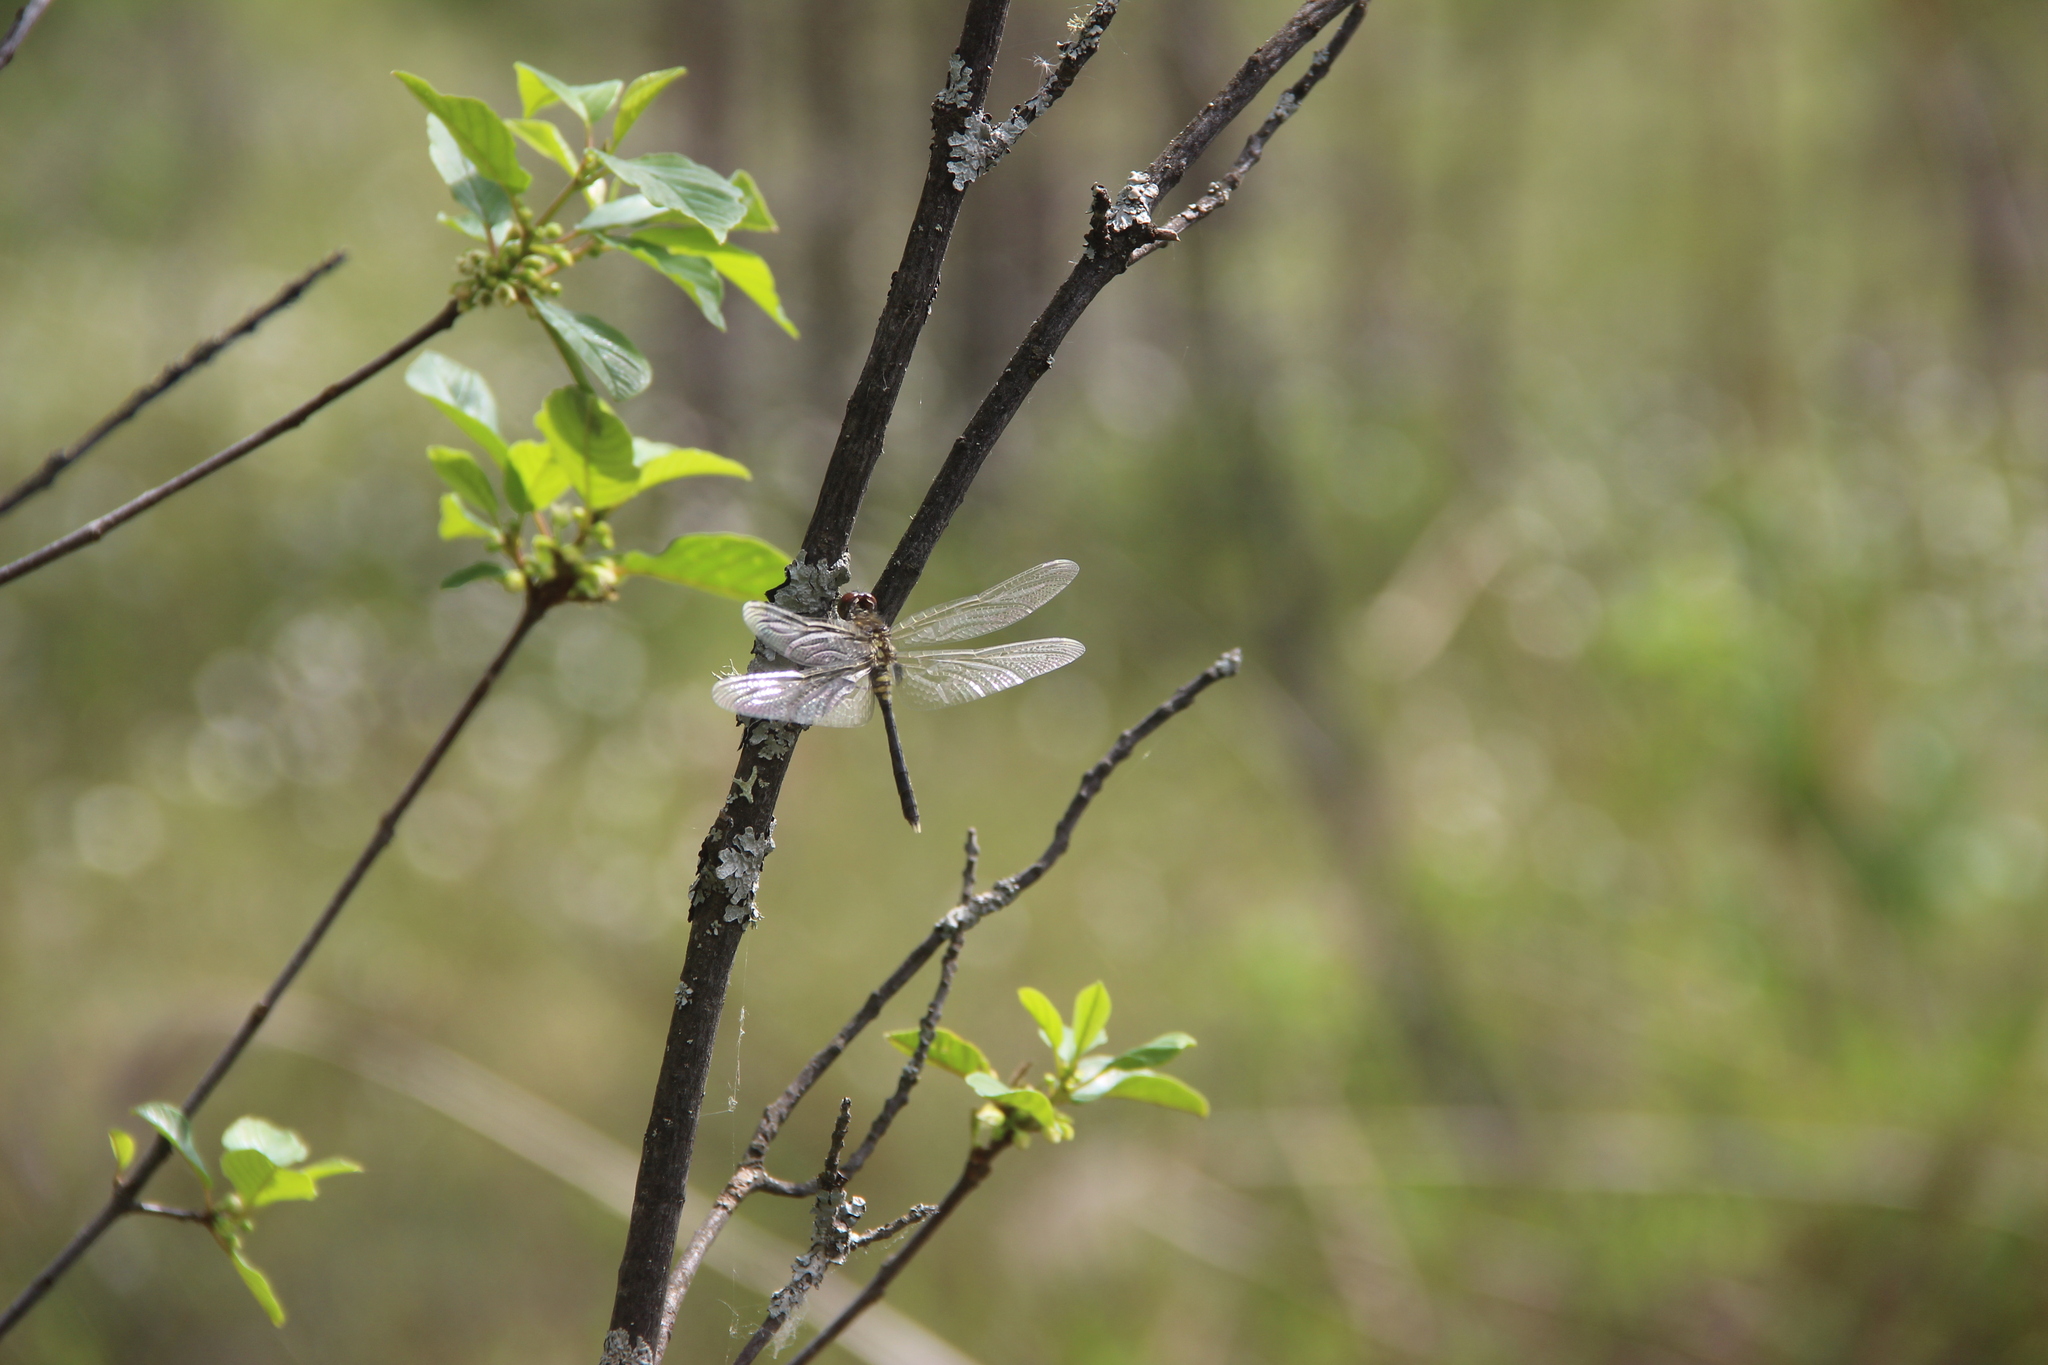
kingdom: Animalia
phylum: Arthropoda
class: Insecta
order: Odonata
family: Libellulidae
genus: Leucorrhinia
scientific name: Leucorrhinia albifrons
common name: Dark whiteface
